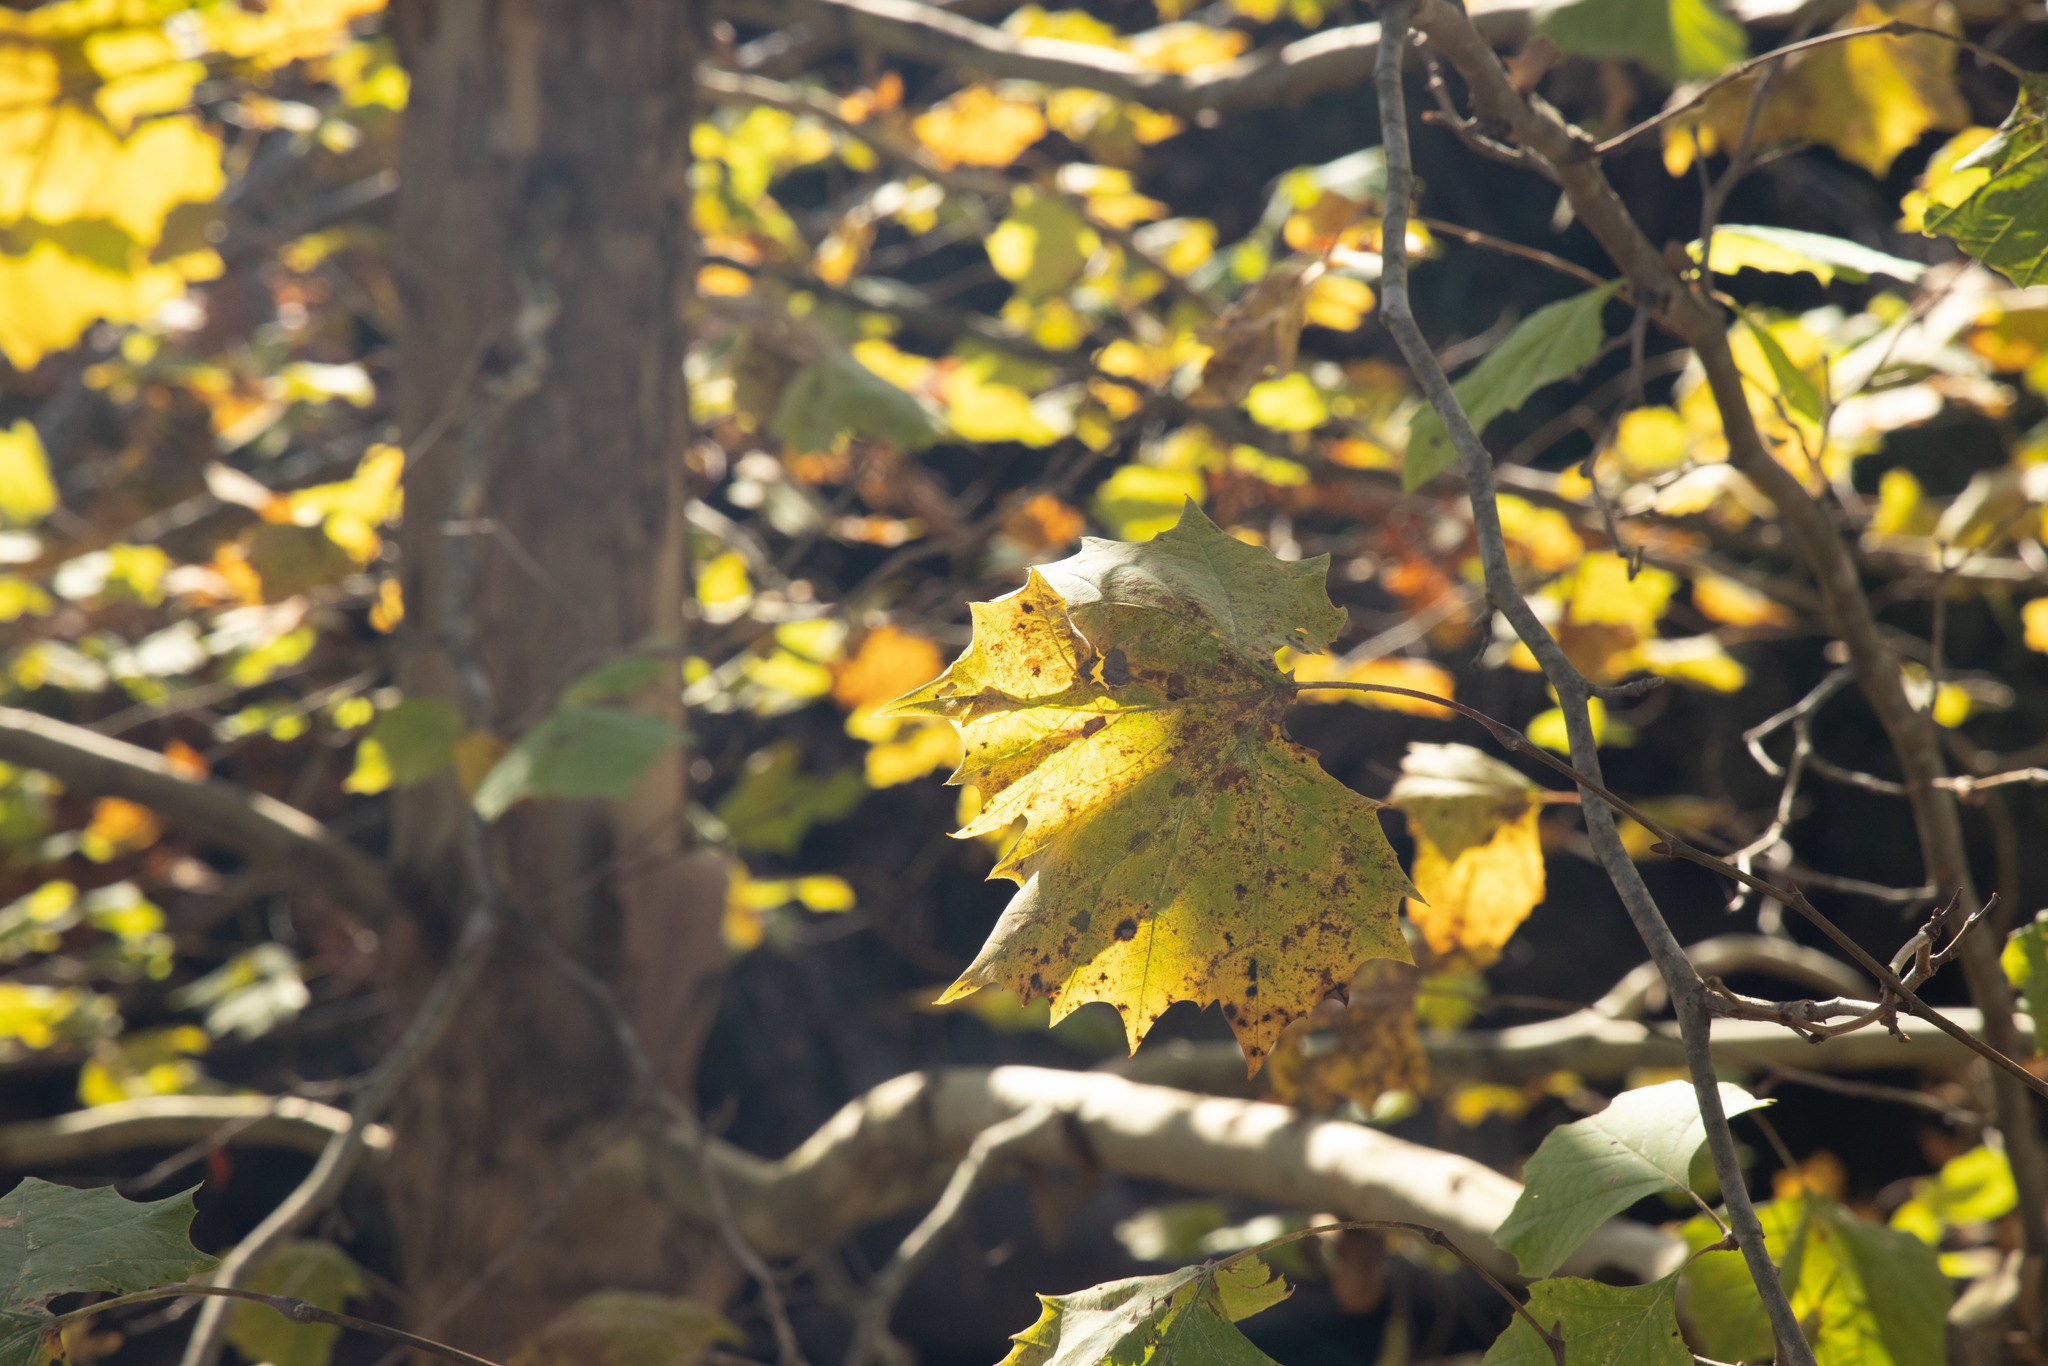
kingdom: Plantae
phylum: Tracheophyta
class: Magnoliopsida
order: Proteales
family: Platanaceae
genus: Platanus
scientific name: Platanus occidentalis
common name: American sycamore
